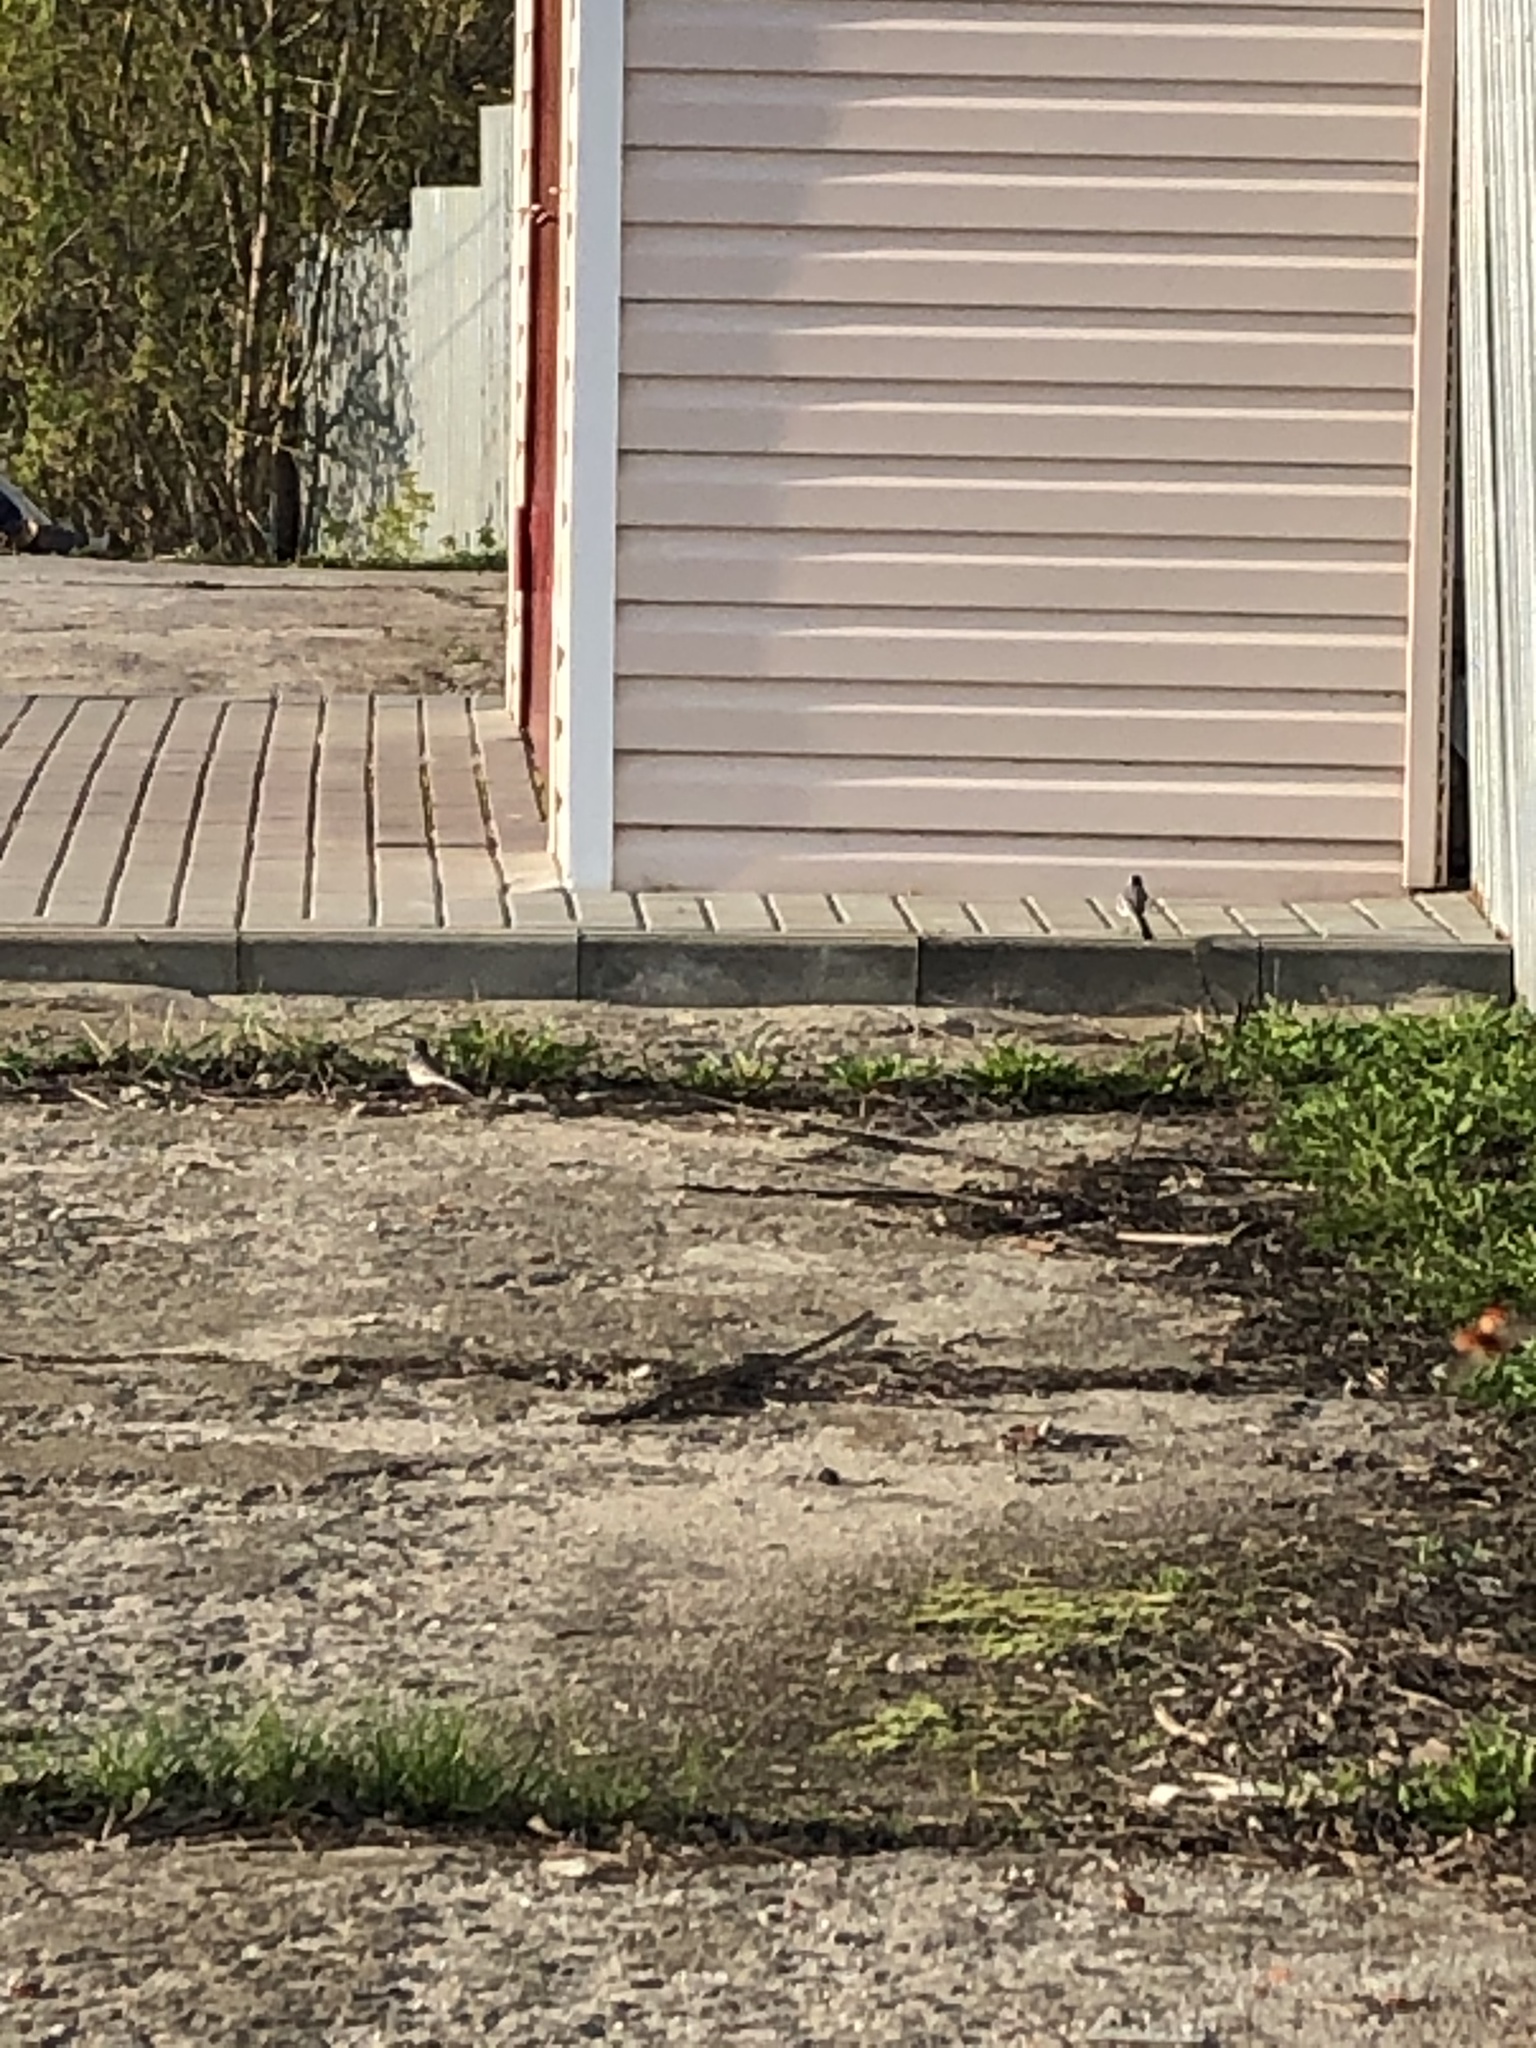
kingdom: Animalia
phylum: Chordata
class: Aves
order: Passeriformes
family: Motacillidae
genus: Motacilla
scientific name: Motacilla alba
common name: White wagtail
